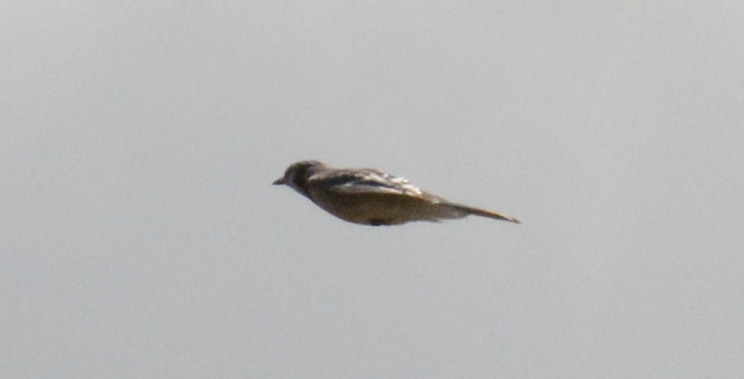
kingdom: Animalia
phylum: Chordata
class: Aves
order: Passeriformes
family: Corvidae
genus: Cyanocitta
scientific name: Cyanocitta cristata
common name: Blue jay
